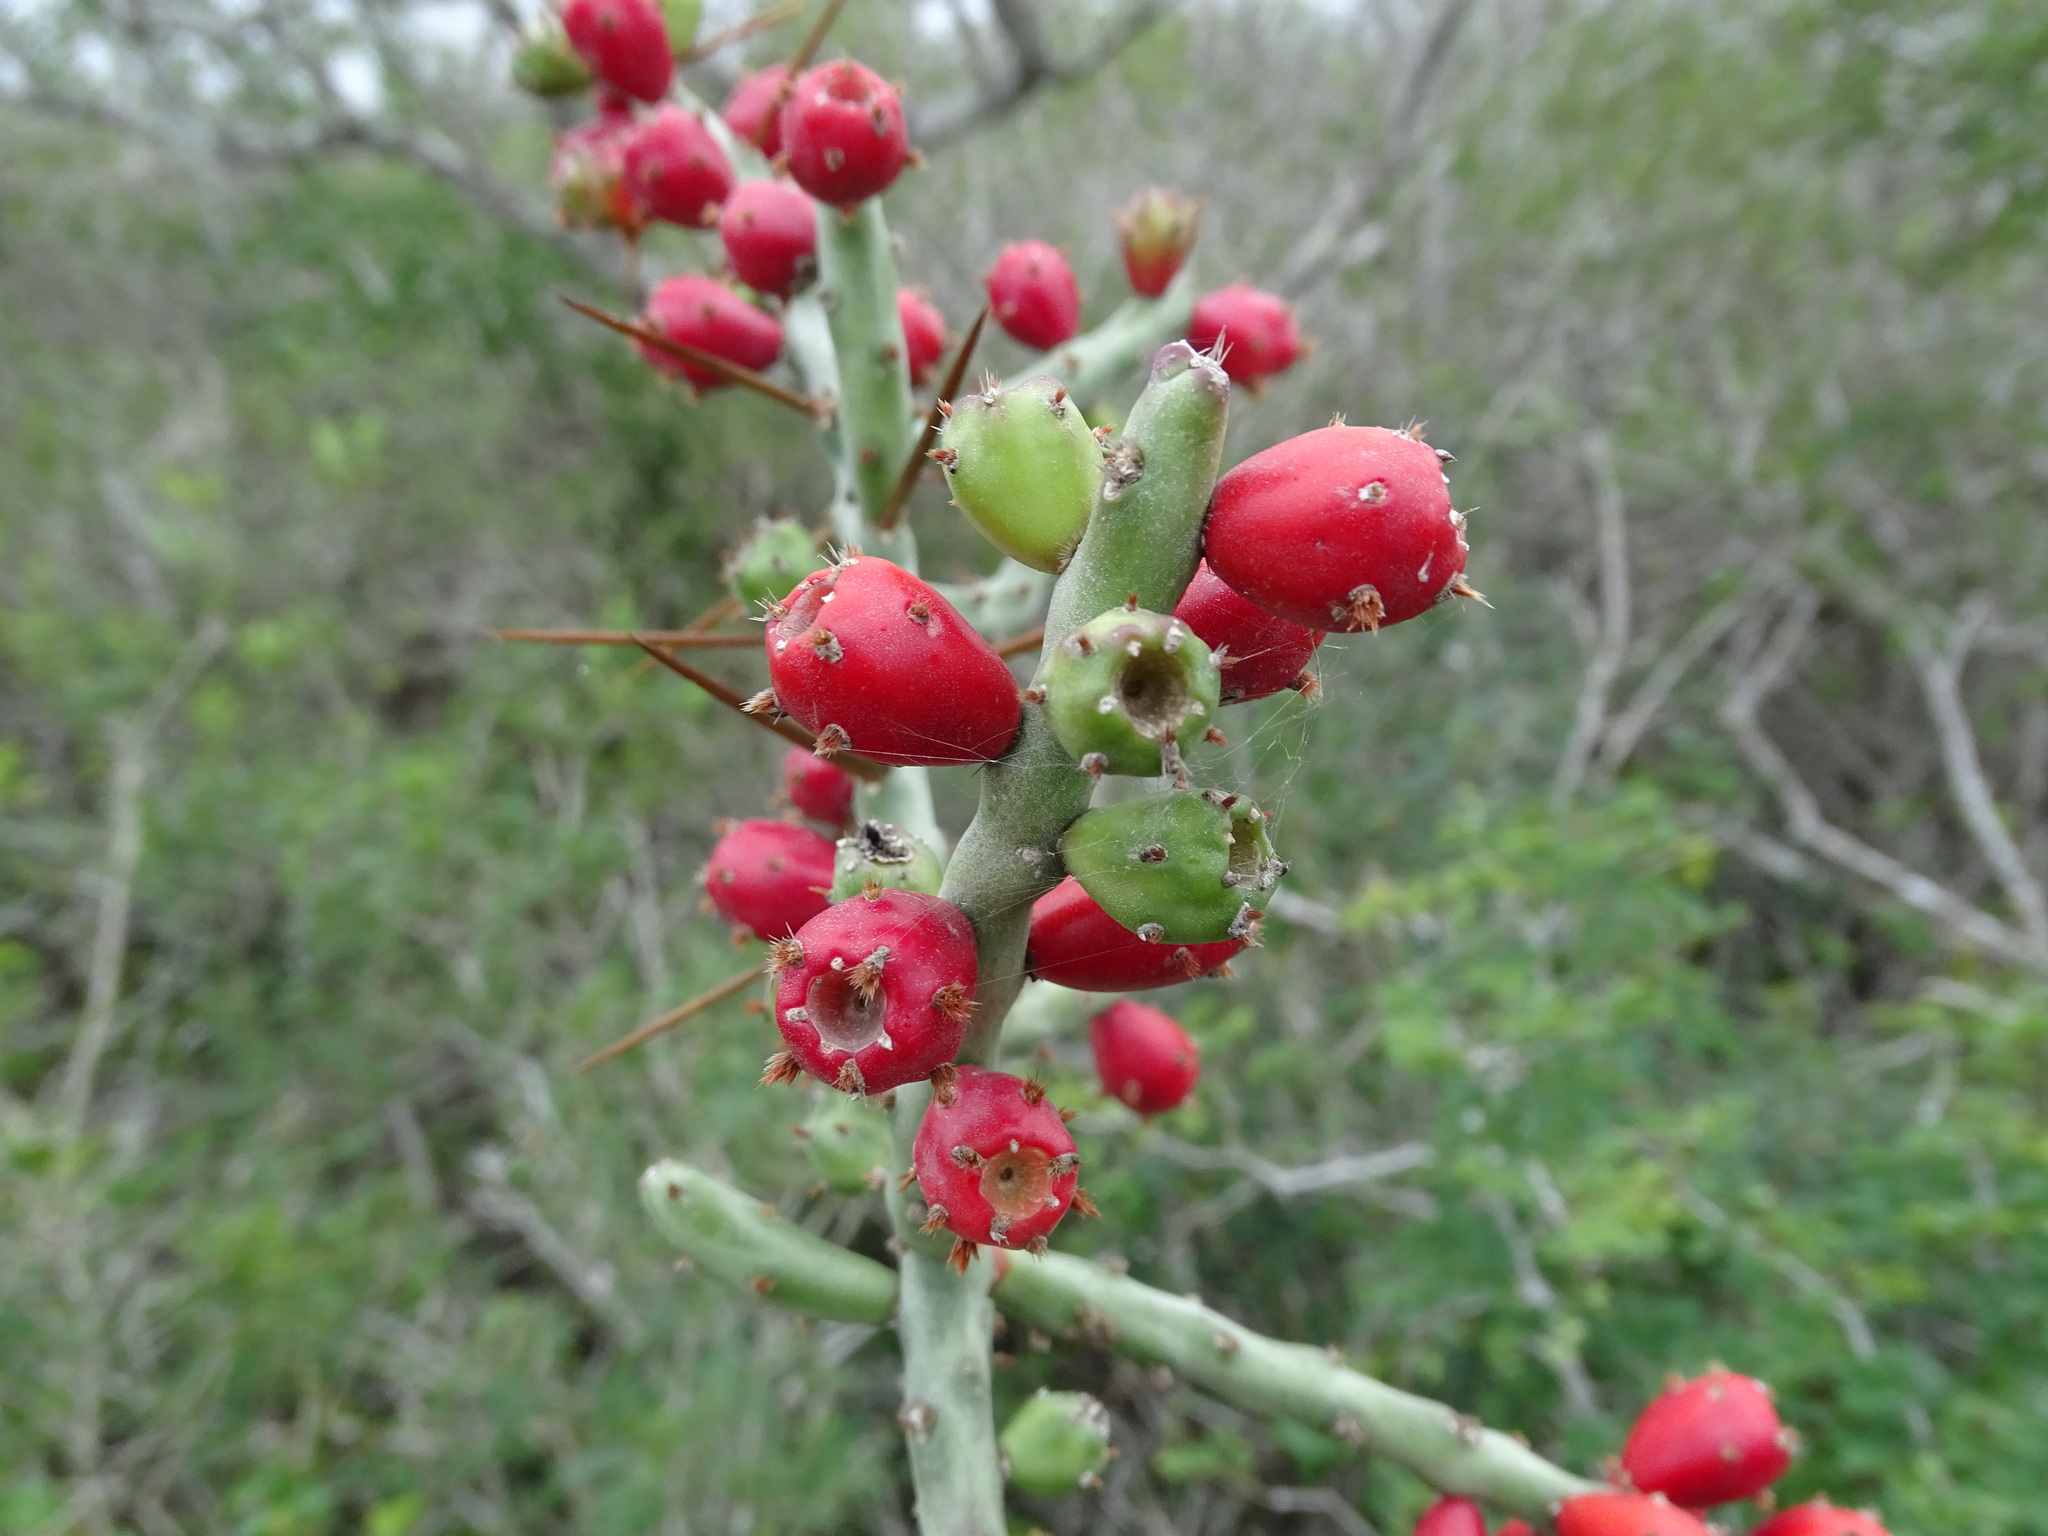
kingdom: Plantae
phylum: Tracheophyta
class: Magnoliopsida
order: Caryophyllales
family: Cactaceae
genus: Cylindropuntia
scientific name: Cylindropuntia leptocaulis
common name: Christmas cactus
